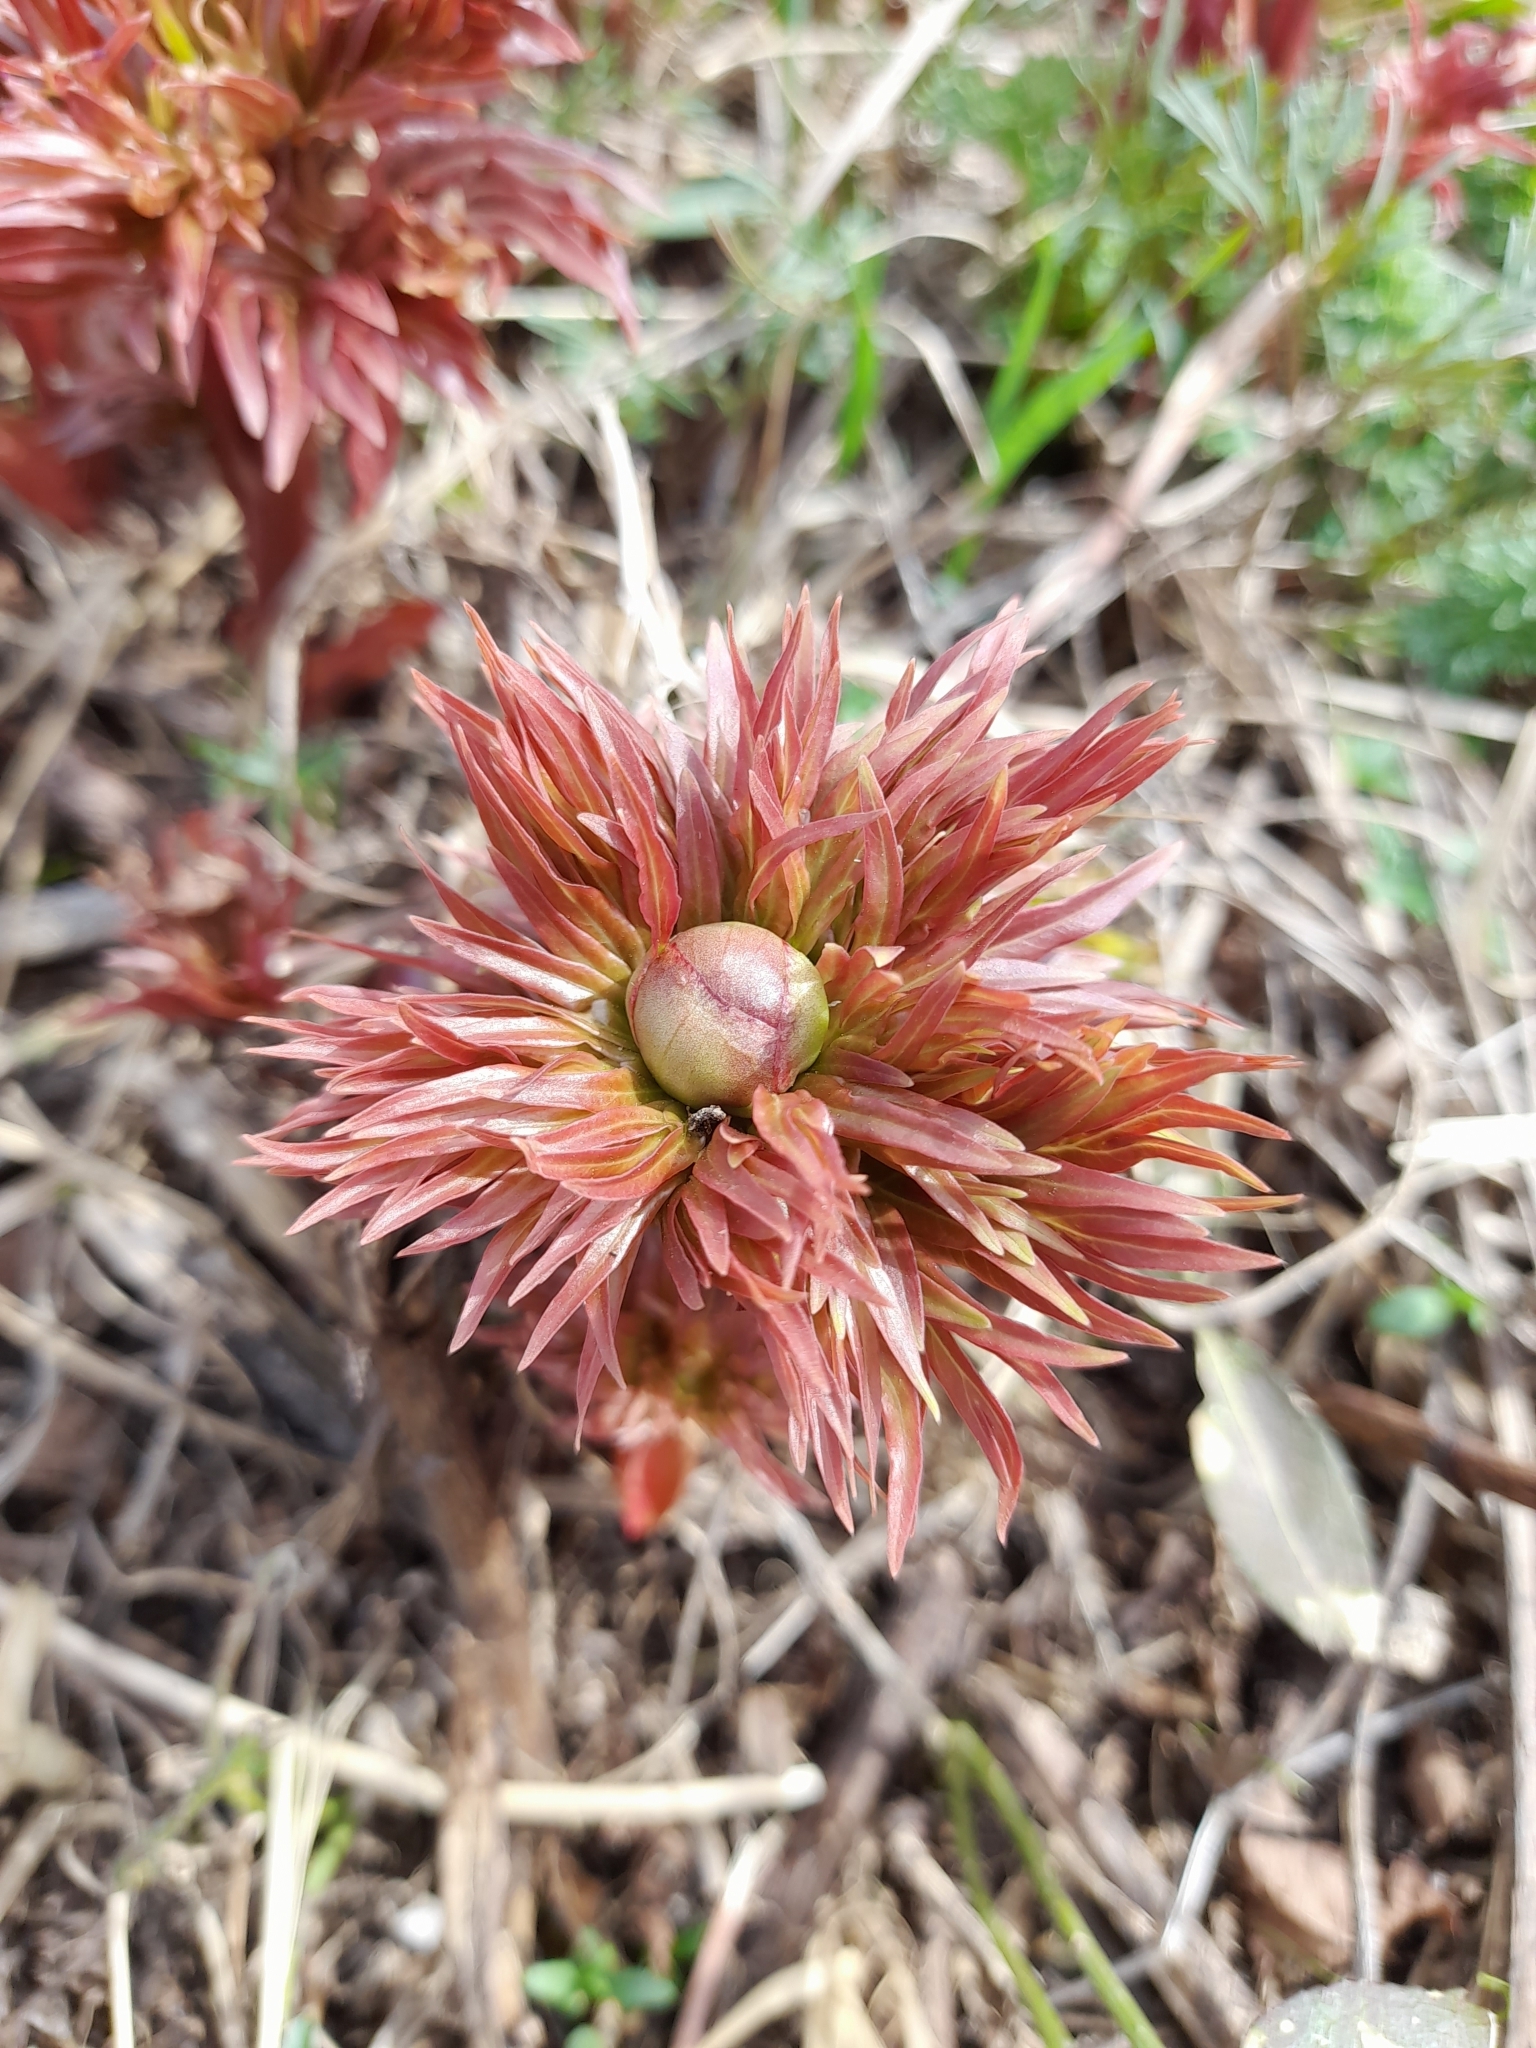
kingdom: Plantae
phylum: Tracheophyta
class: Magnoliopsida
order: Saxifragales
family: Paeoniaceae
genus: Paeonia
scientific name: Paeonia intermedia
